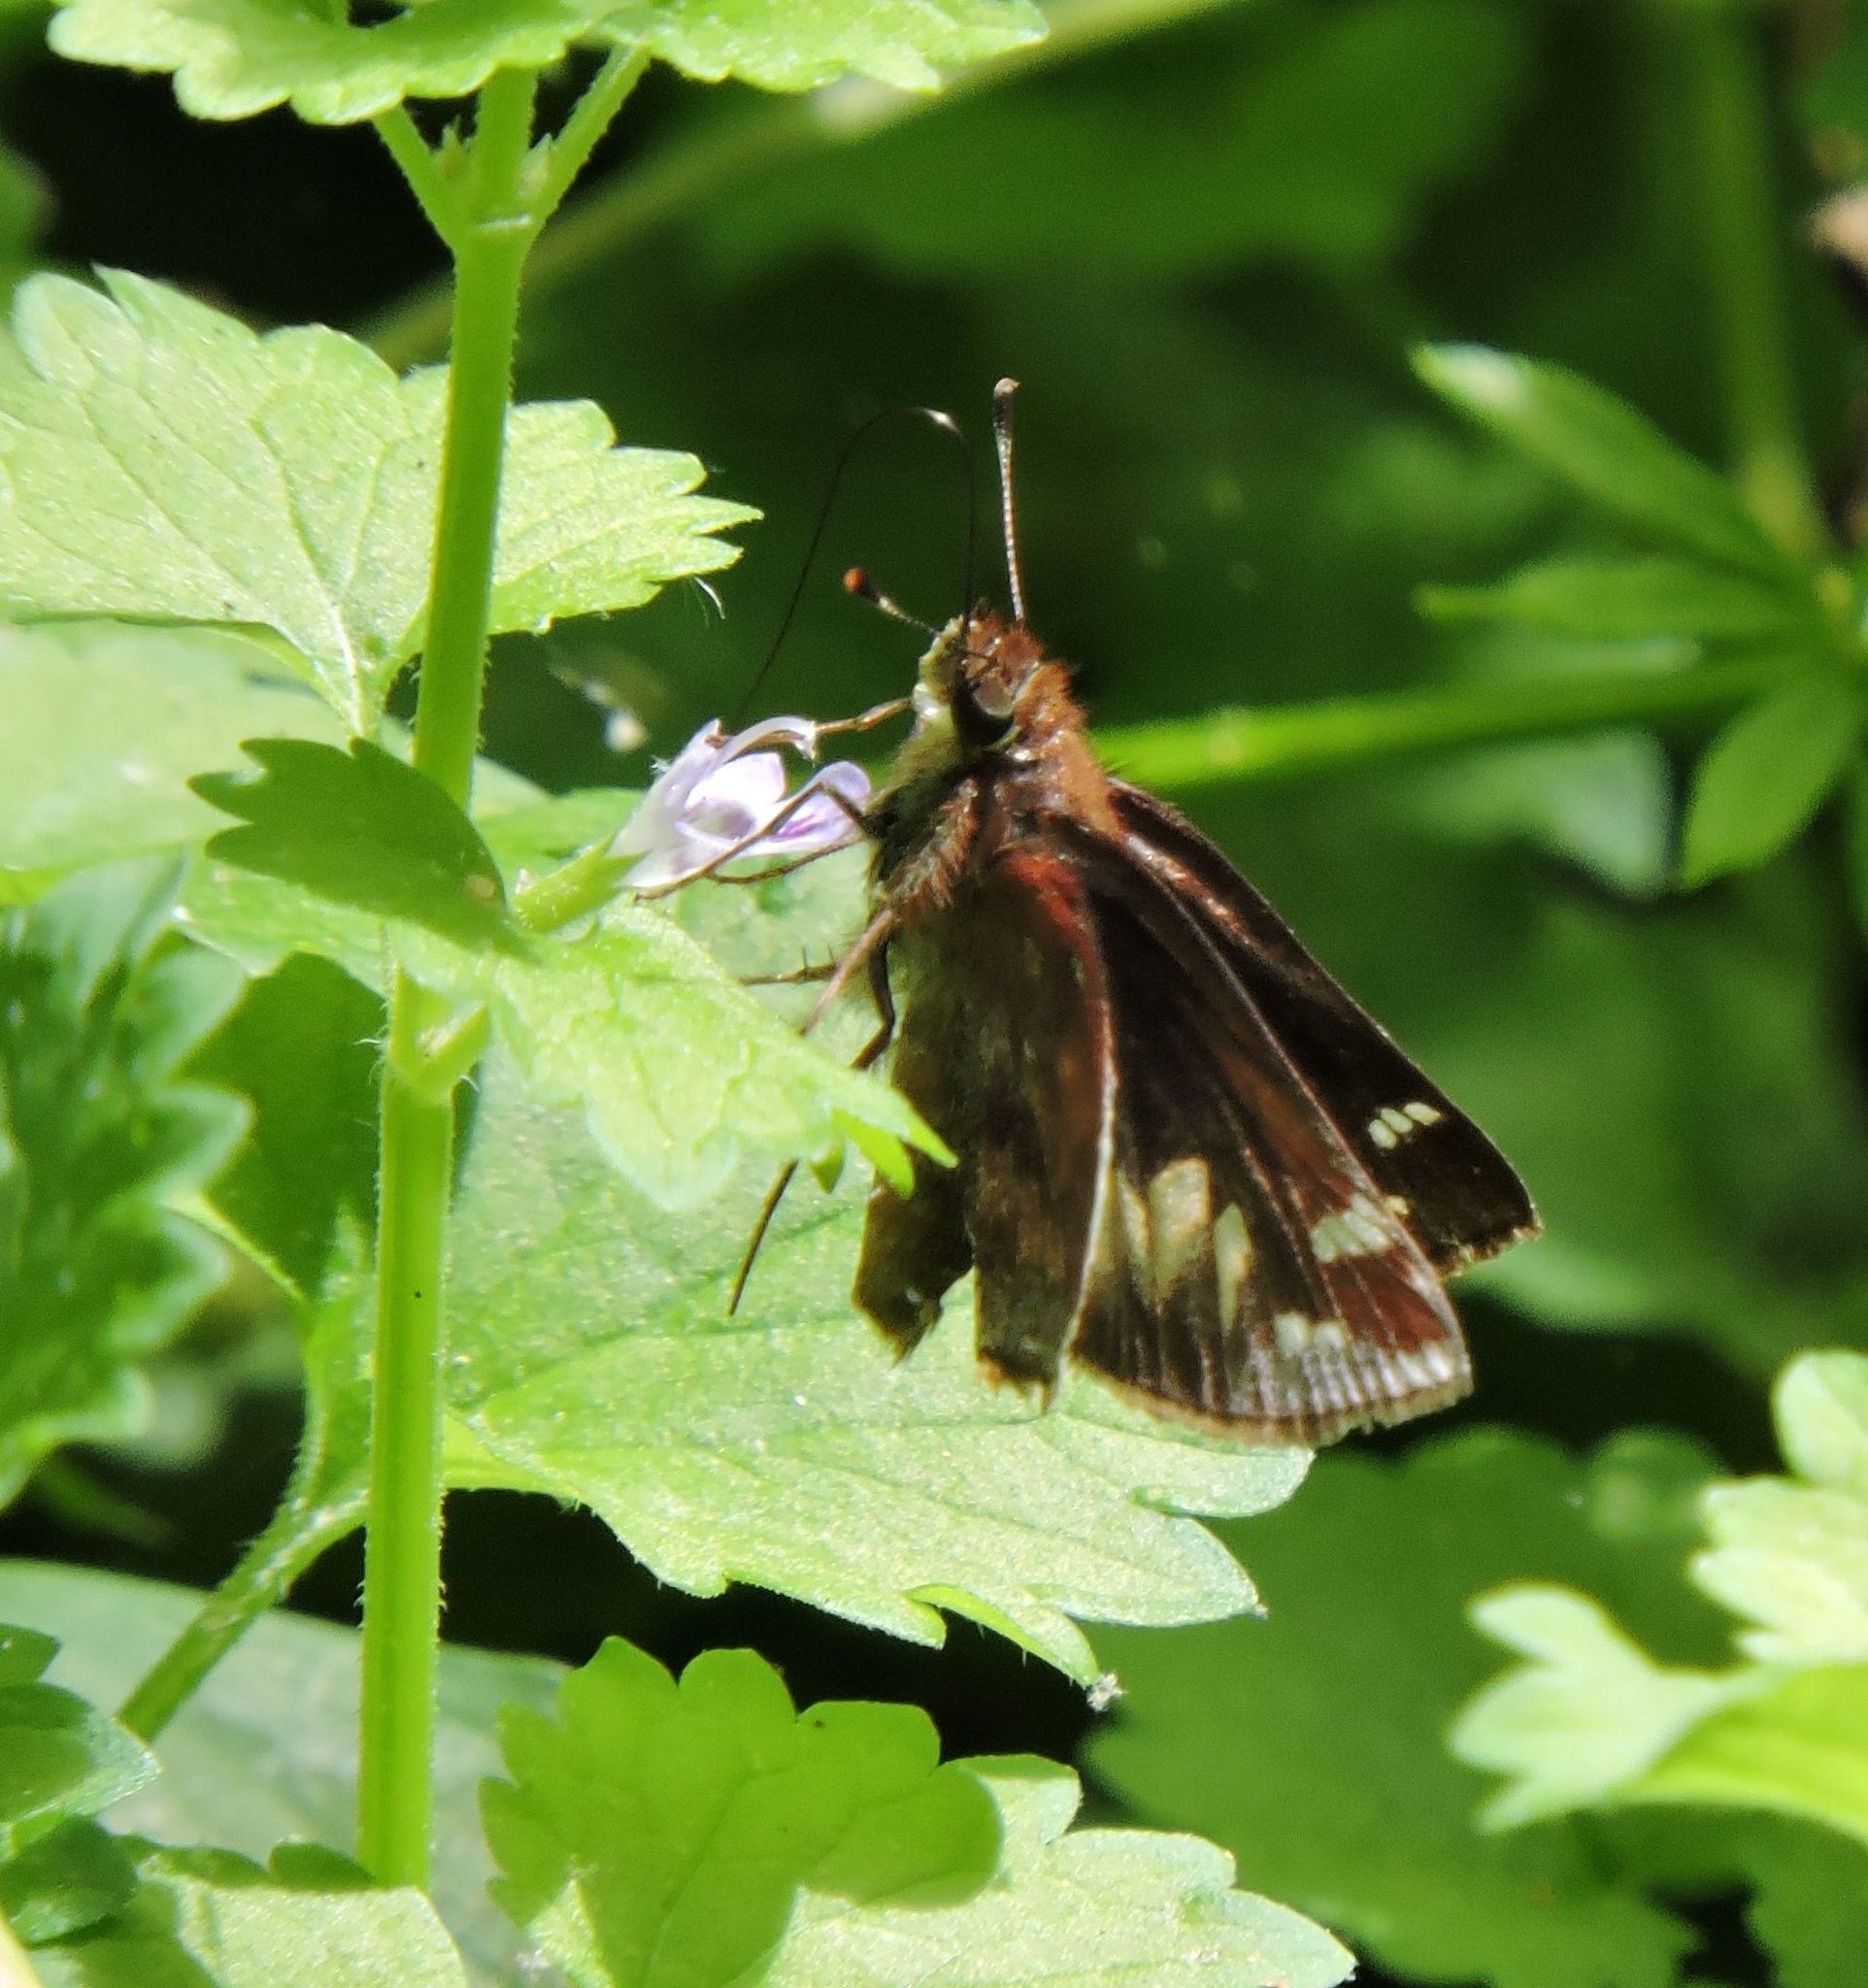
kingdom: Animalia
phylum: Arthropoda
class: Insecta
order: Lepidoptera
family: Hesperiidae
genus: Lon
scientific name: Lon zabulon
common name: Zabulon skipper
